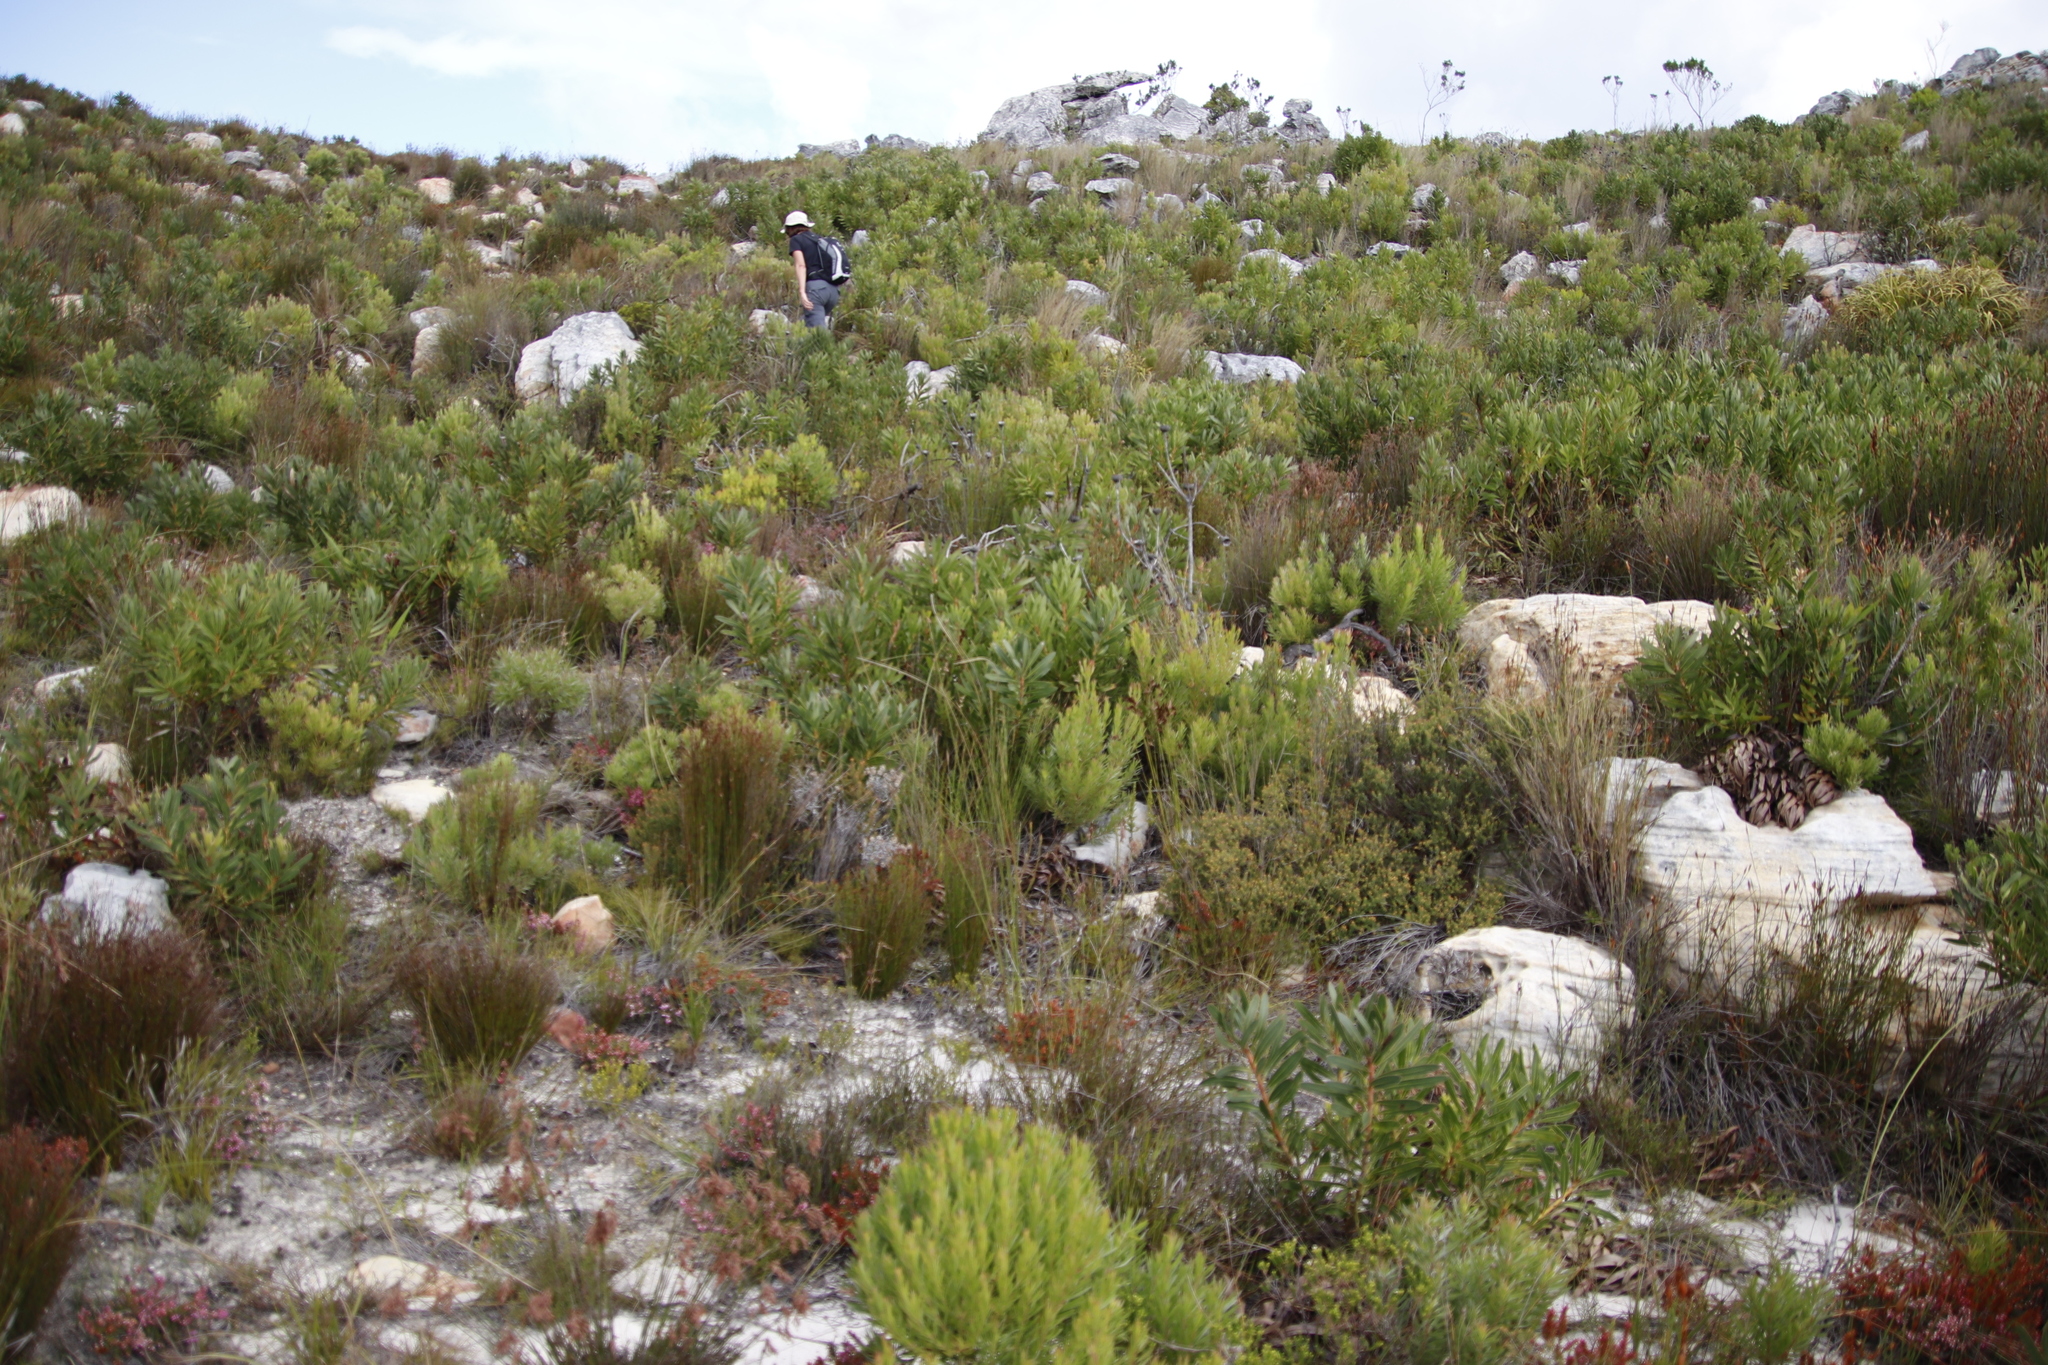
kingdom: Plantae
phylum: Tracheophyta
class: Magnoliopsida
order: Sapindales
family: Rutaceae
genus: Diosma
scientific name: Diosma oppositifolia
